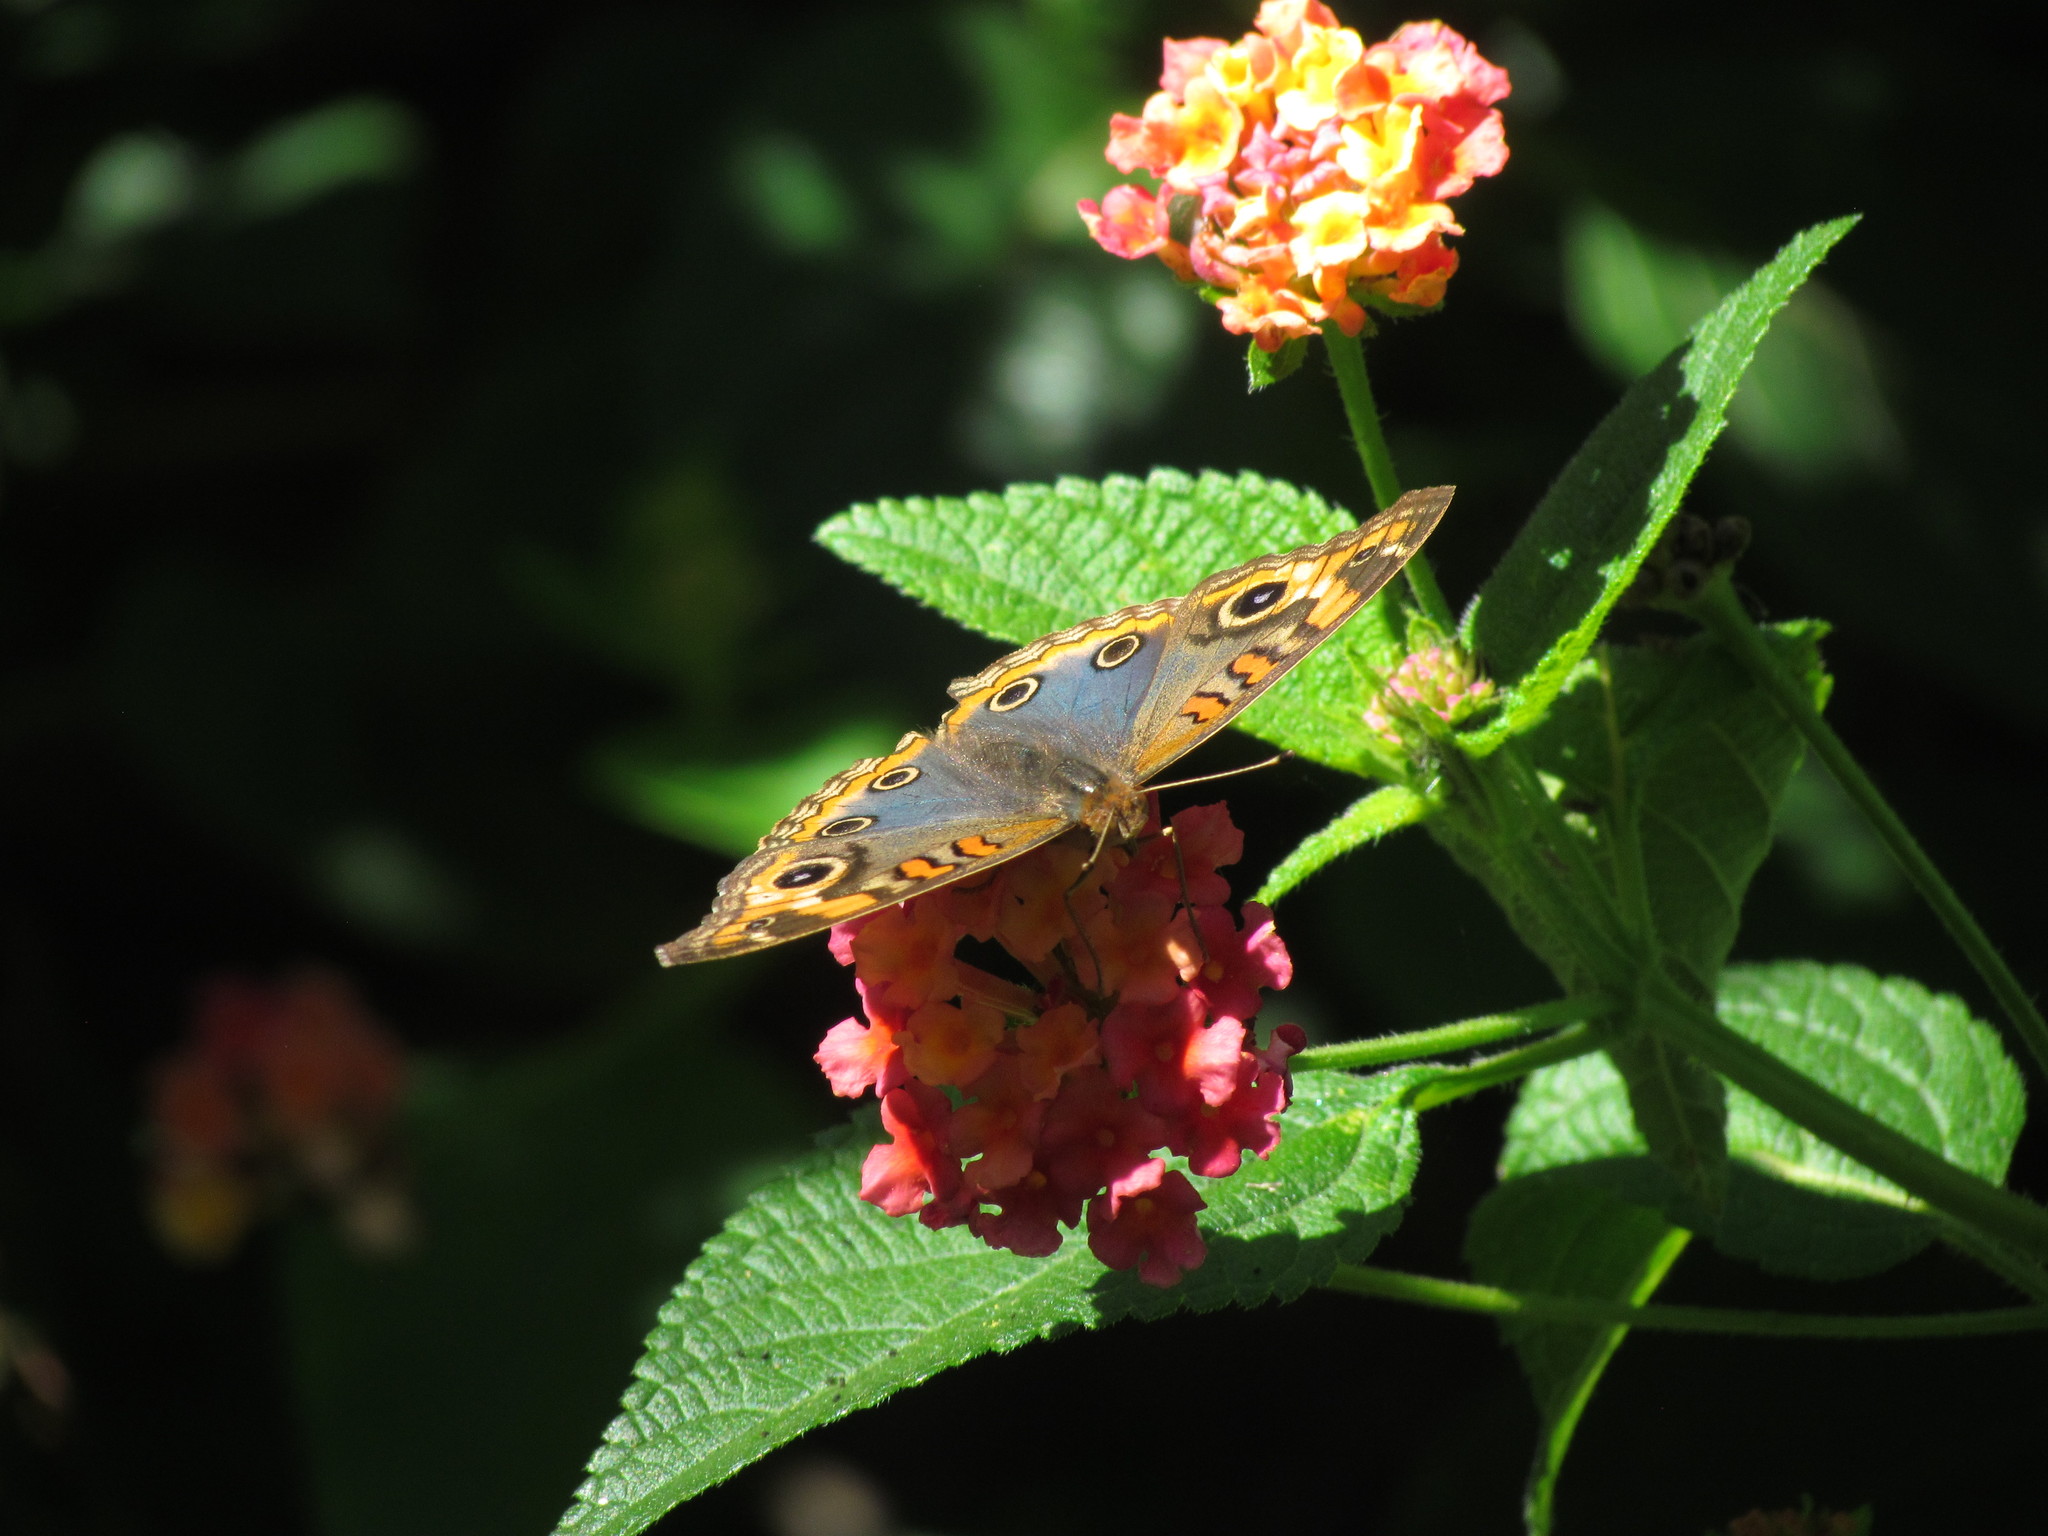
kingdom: Animalia
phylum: Arthropoda
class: Insecta
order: Lepidoptera
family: Nymphalidae
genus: Junonia
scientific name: Junonia lavinia
